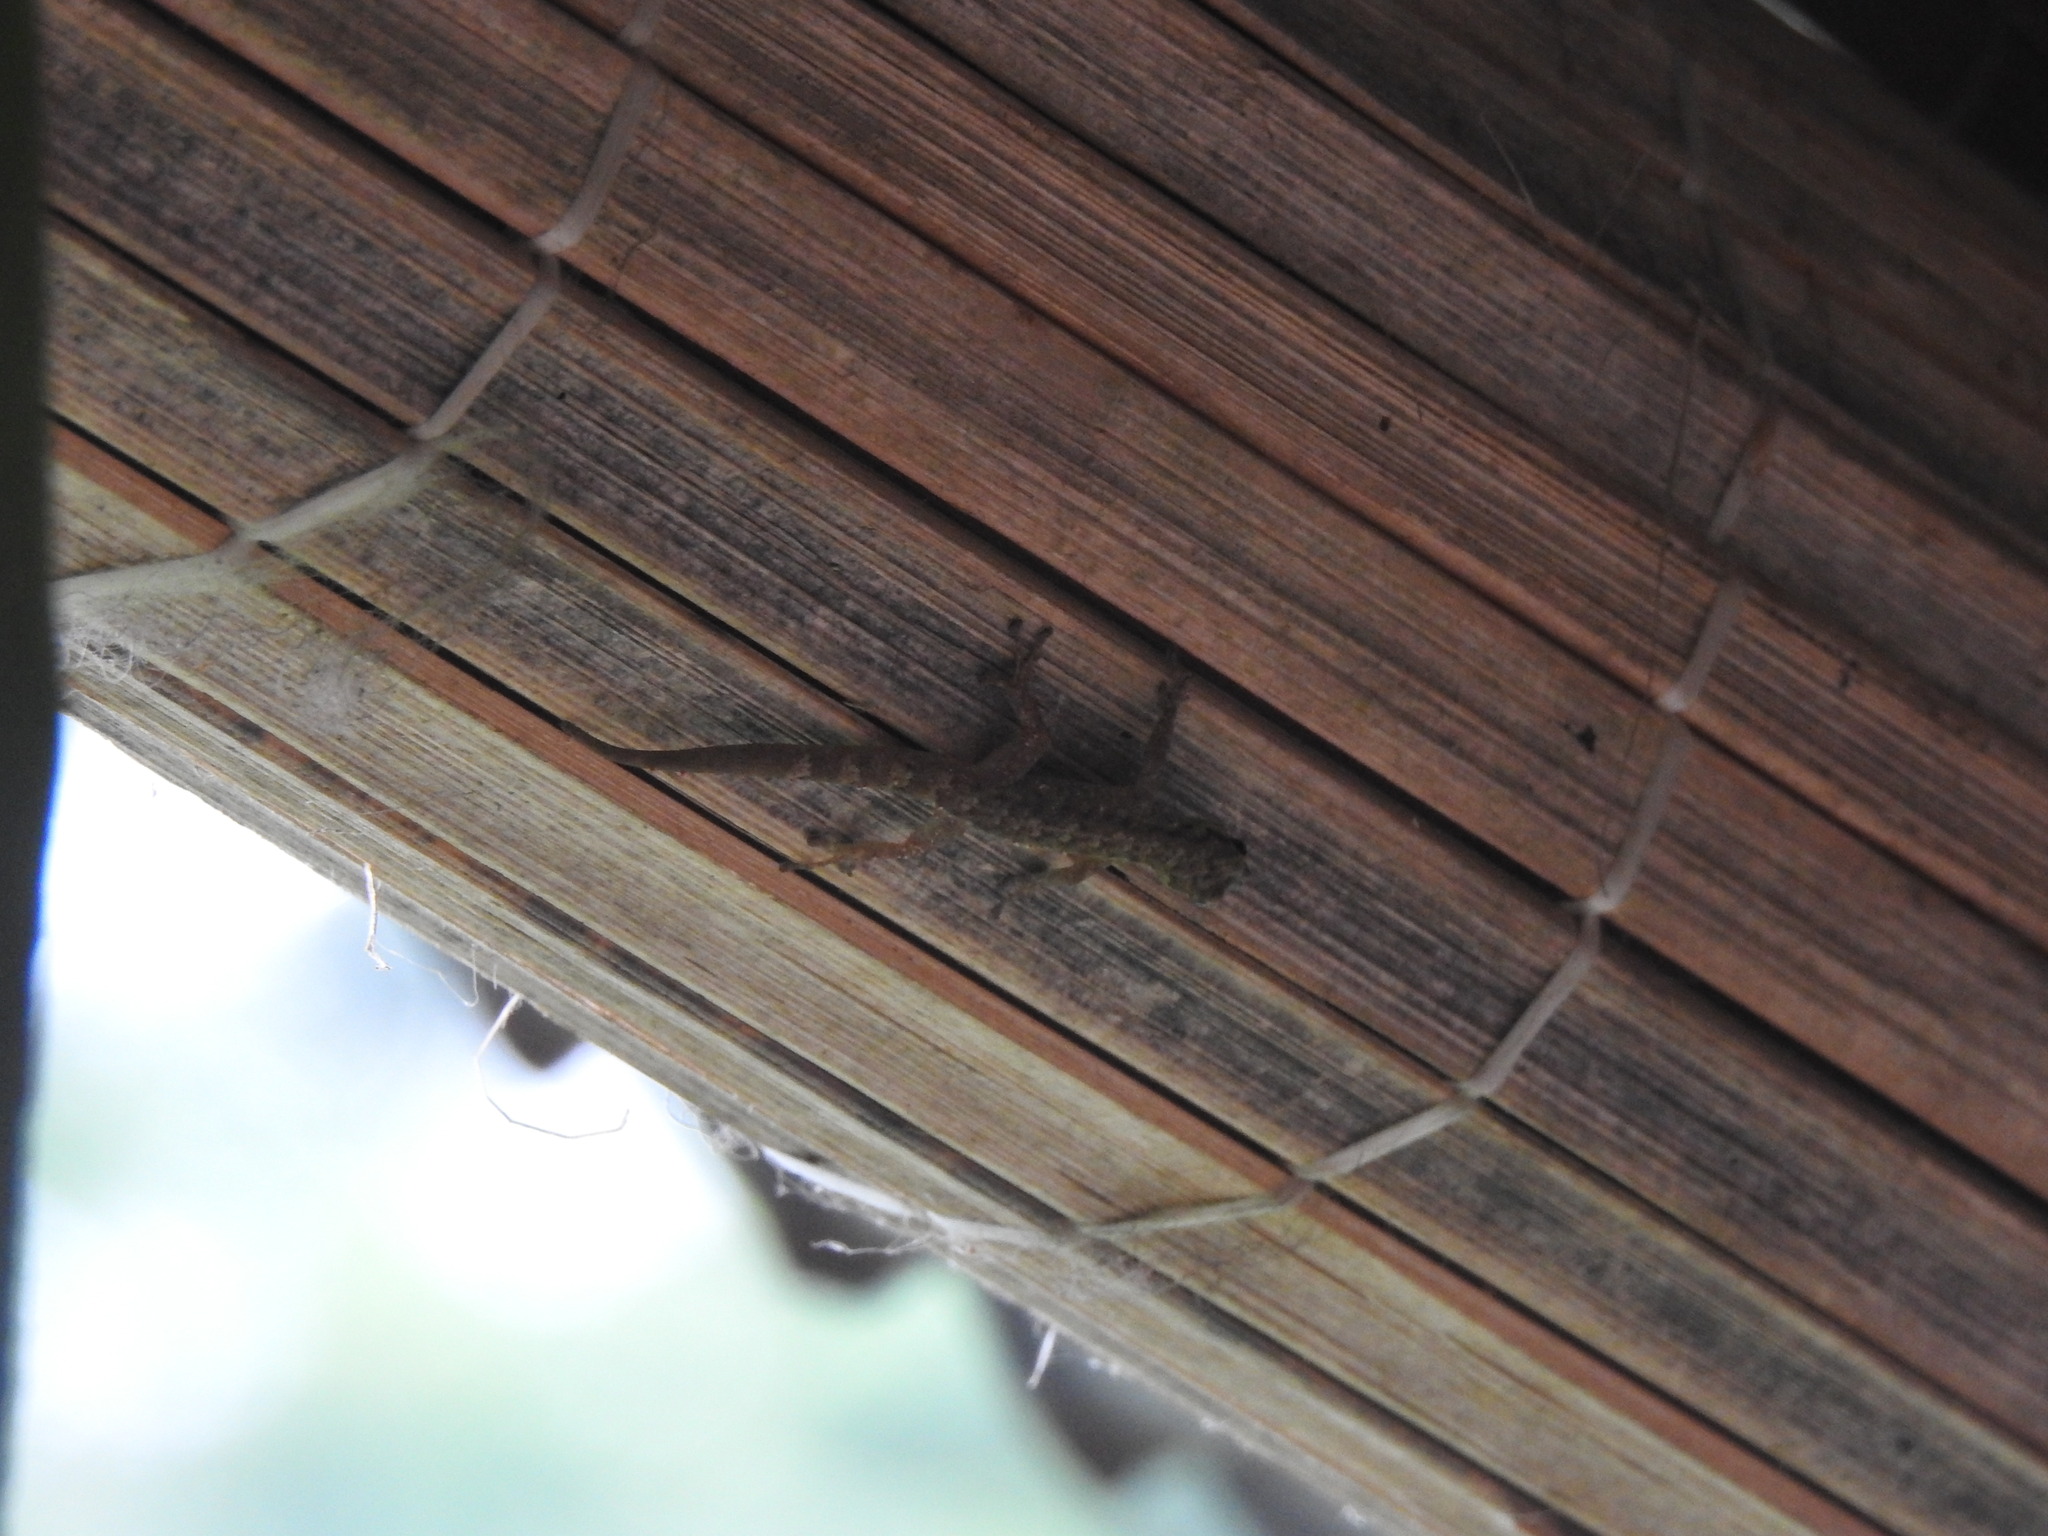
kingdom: Animalia
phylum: Chordata
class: Squamata
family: Gekkonidae
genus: Lygodactylus
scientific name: Lygodactylus thomensis
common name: Annobon dwarf gecko
